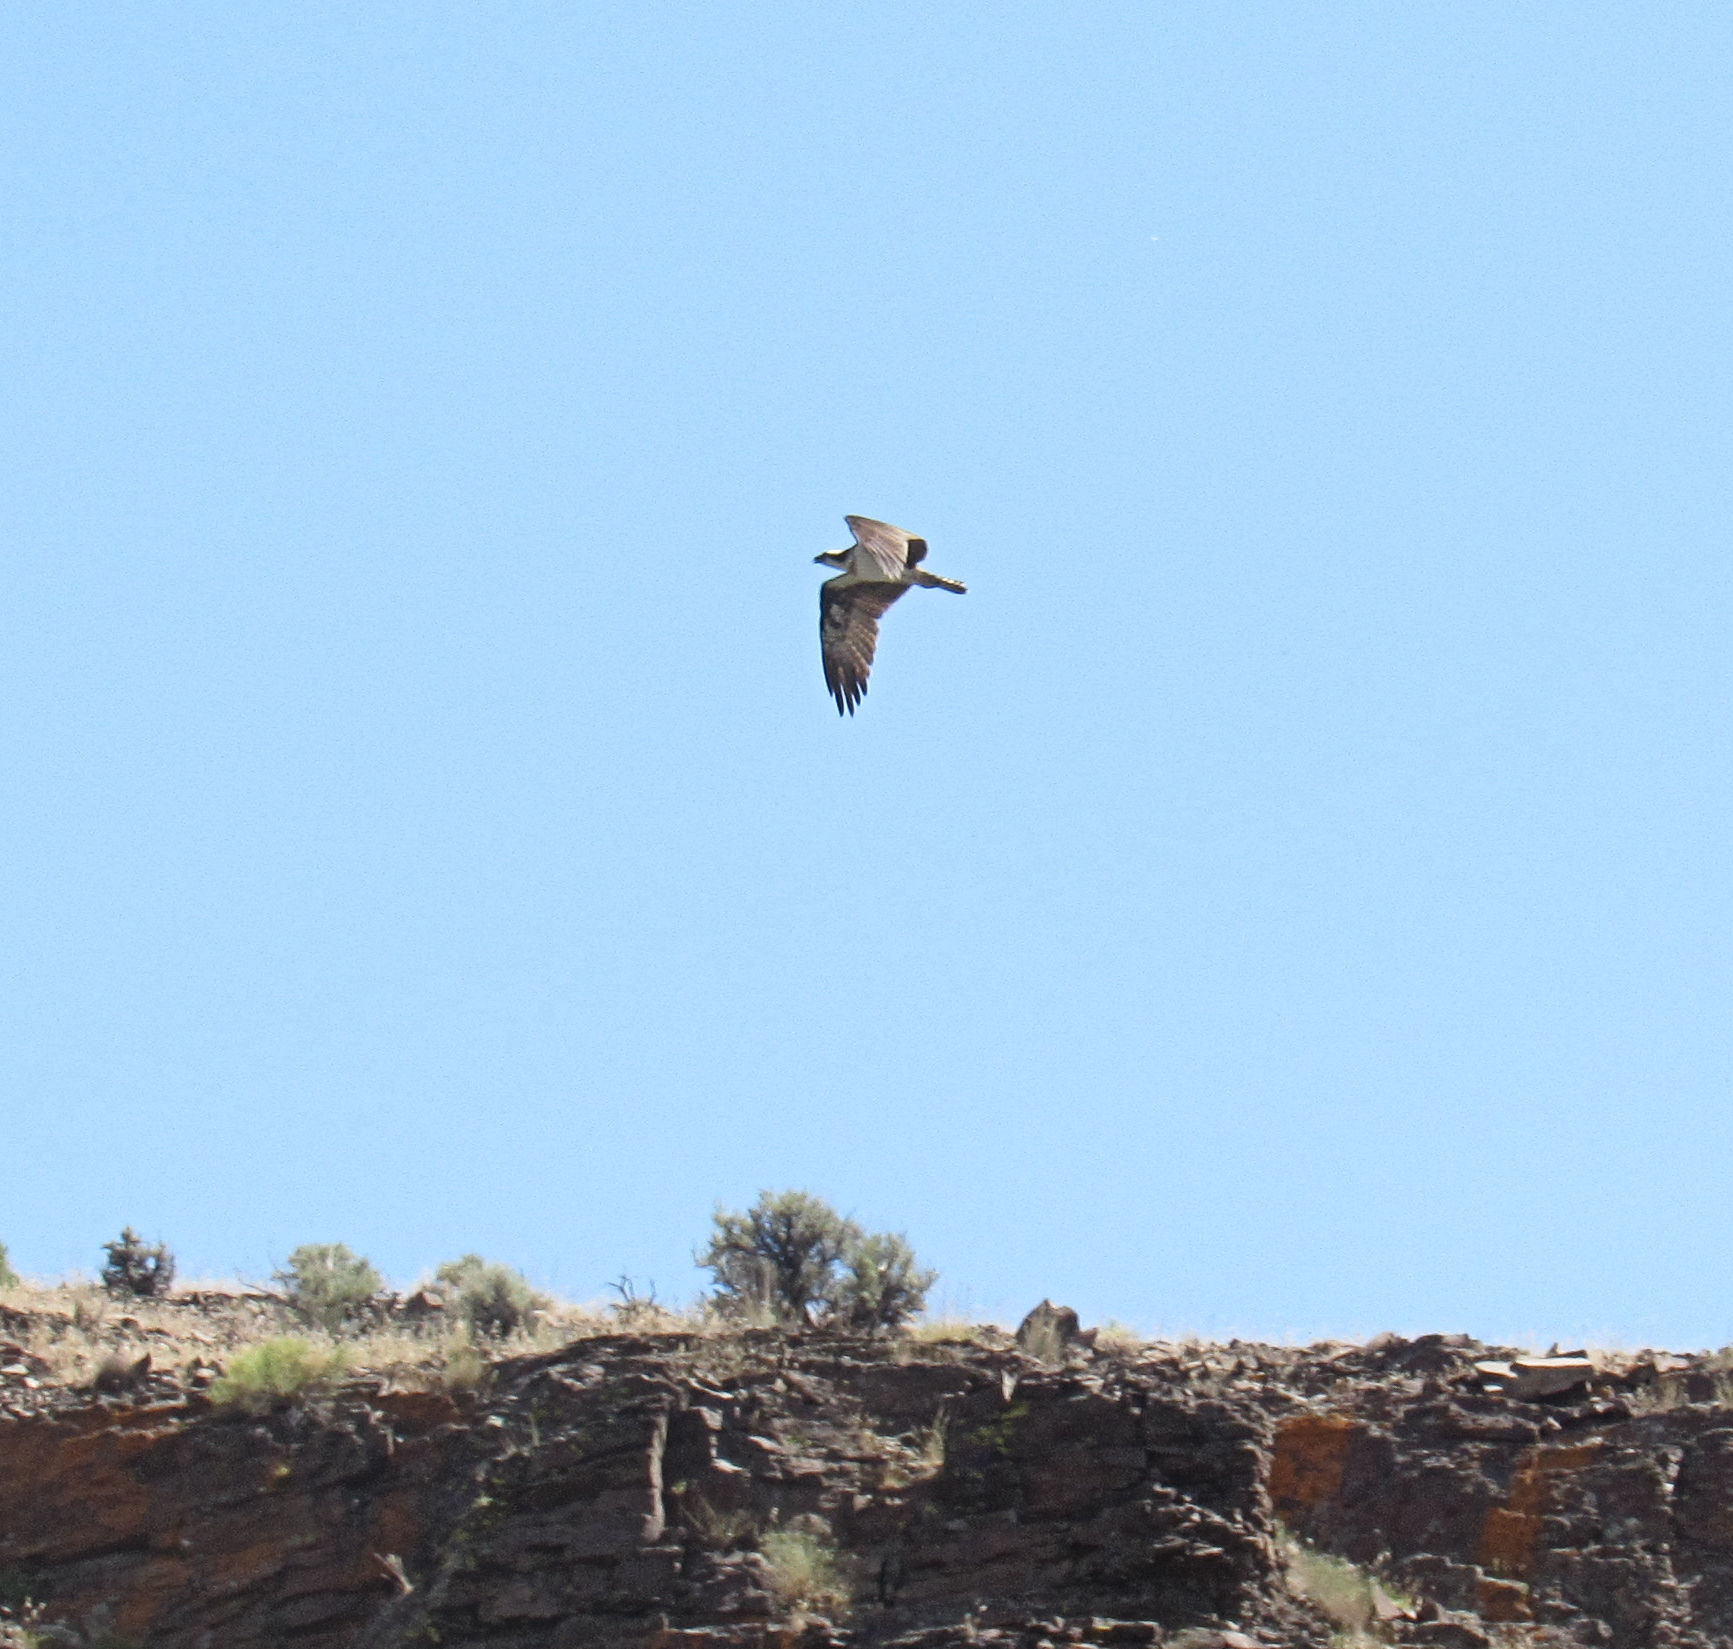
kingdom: Animalia
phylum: Chordata
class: Aves
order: Accipitriformes
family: Pandionidae
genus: Pandion
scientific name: Pandion haliaetus
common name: Osprey
